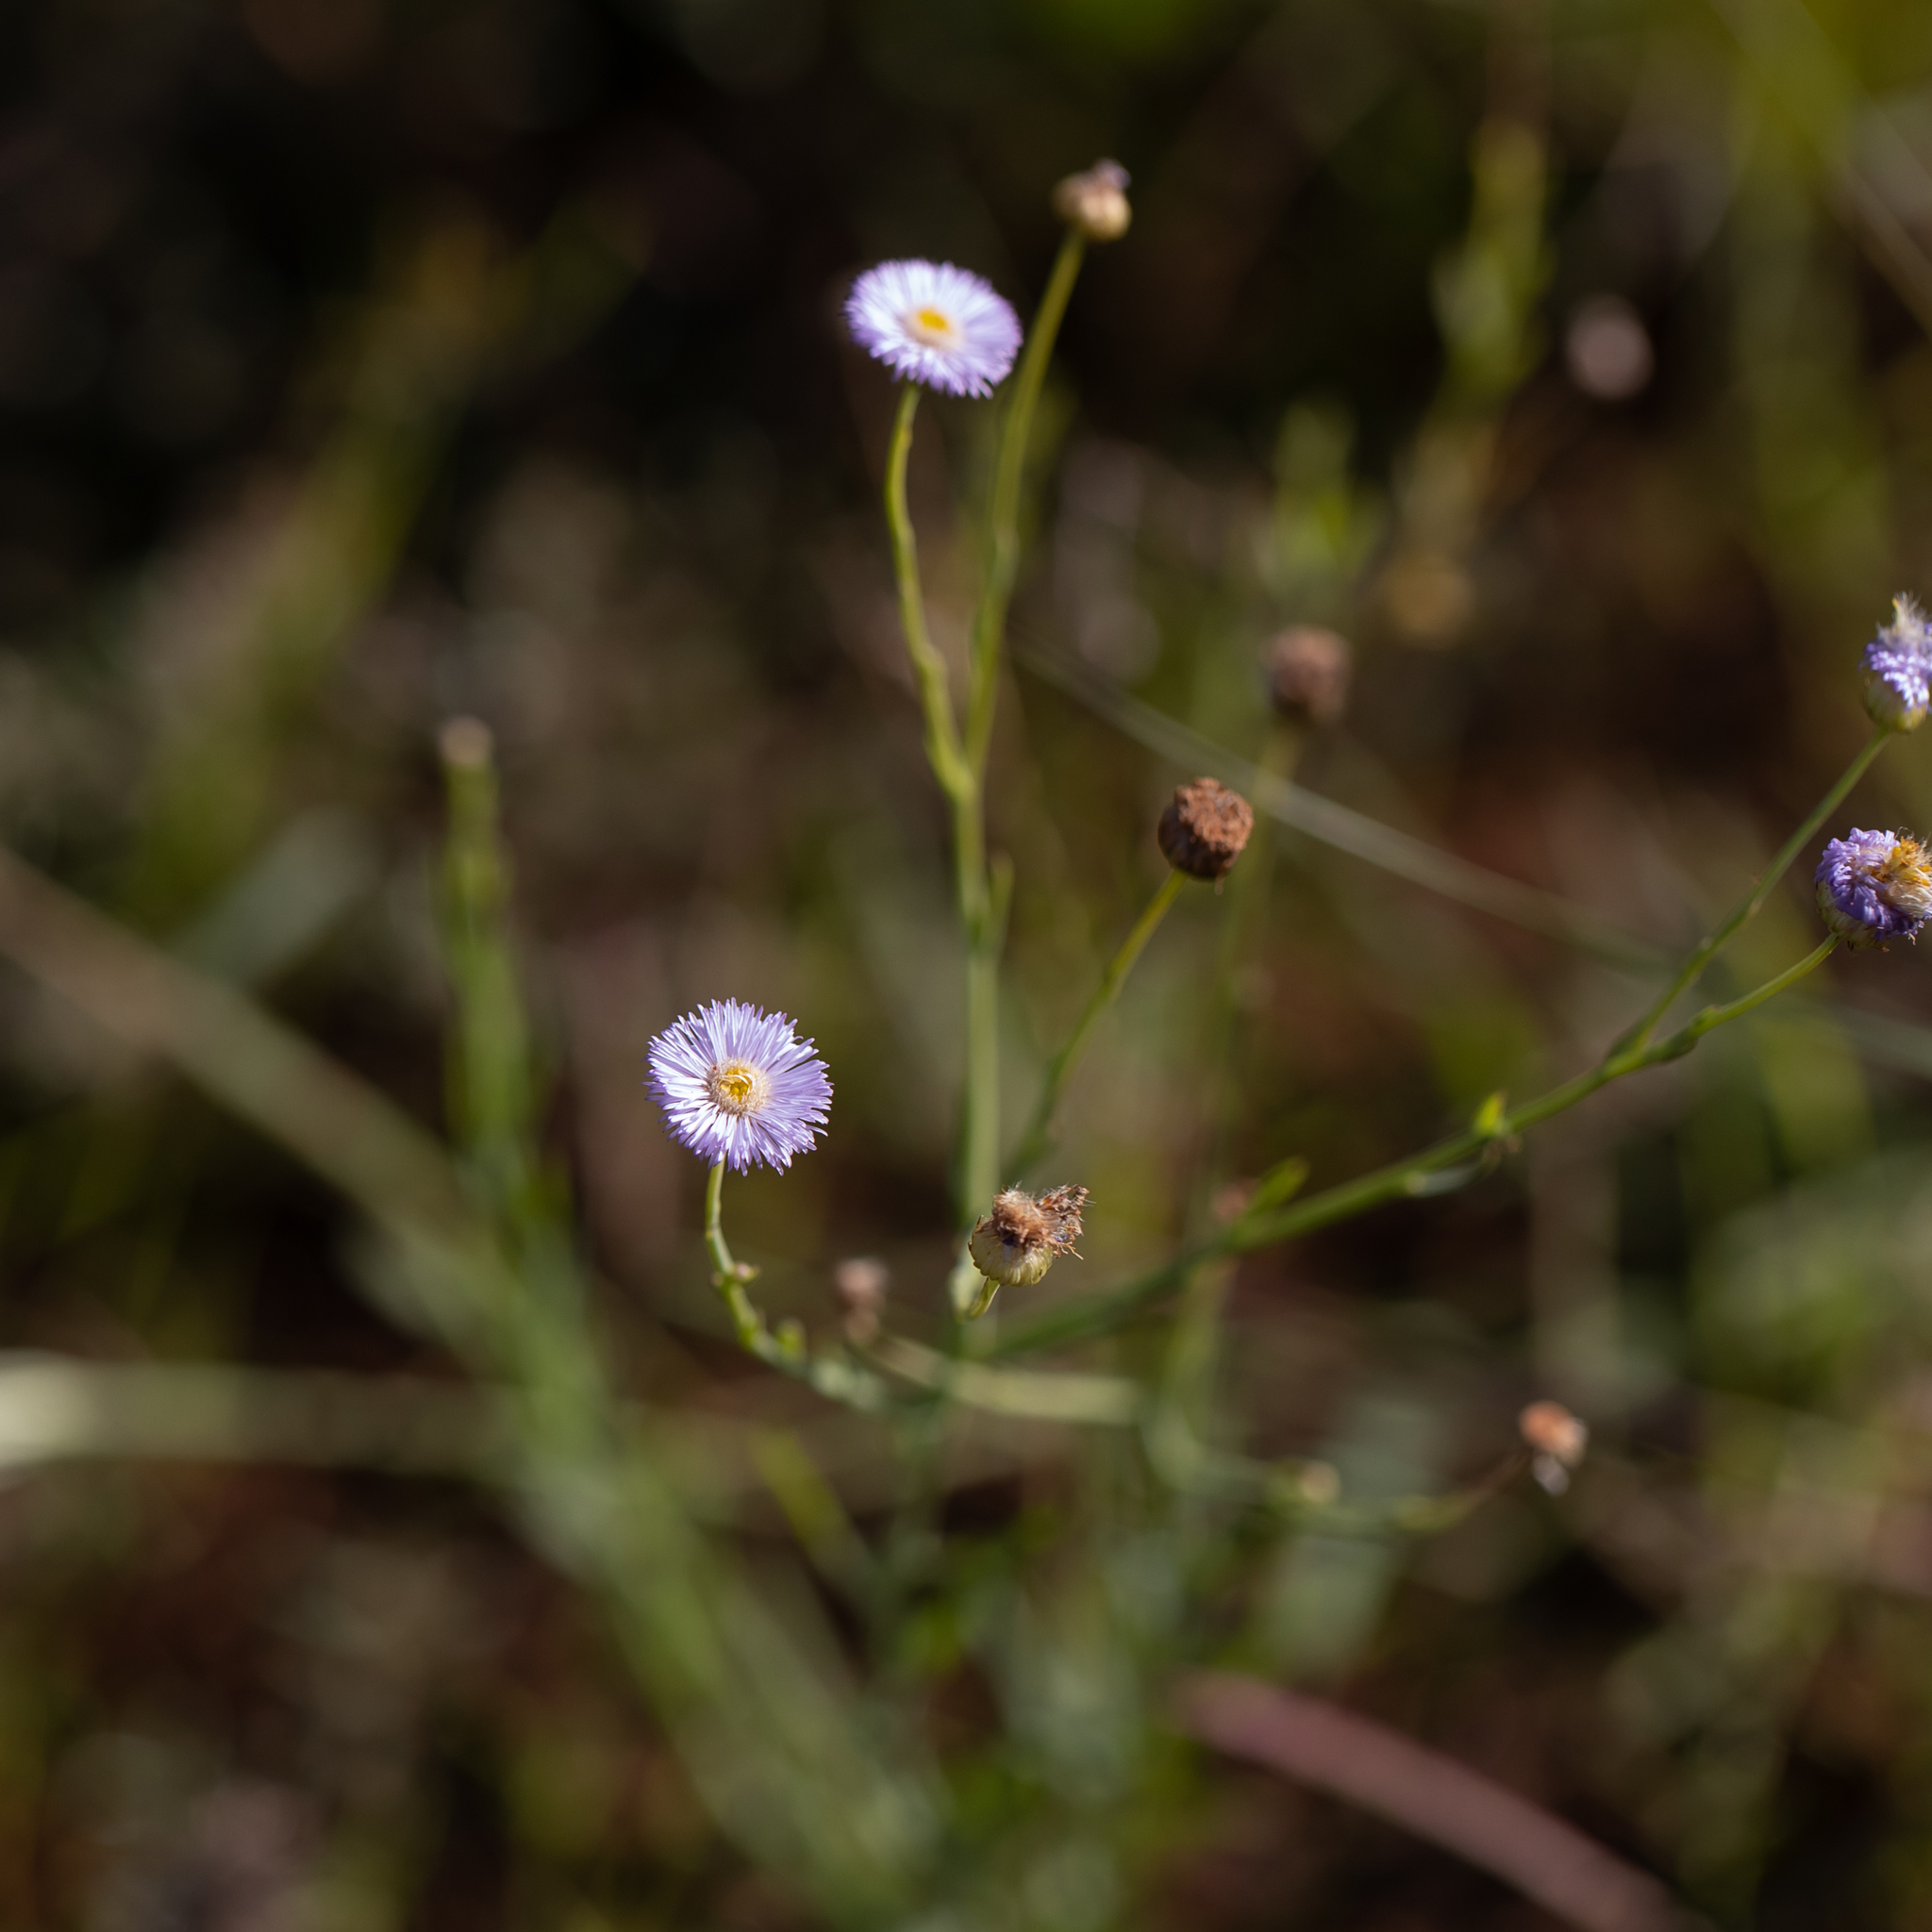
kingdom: Plantae
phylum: Tracheophyta
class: Magnoliopsida
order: Asterales
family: Asteraceae
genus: Minuria
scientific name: Minuria integerrima
